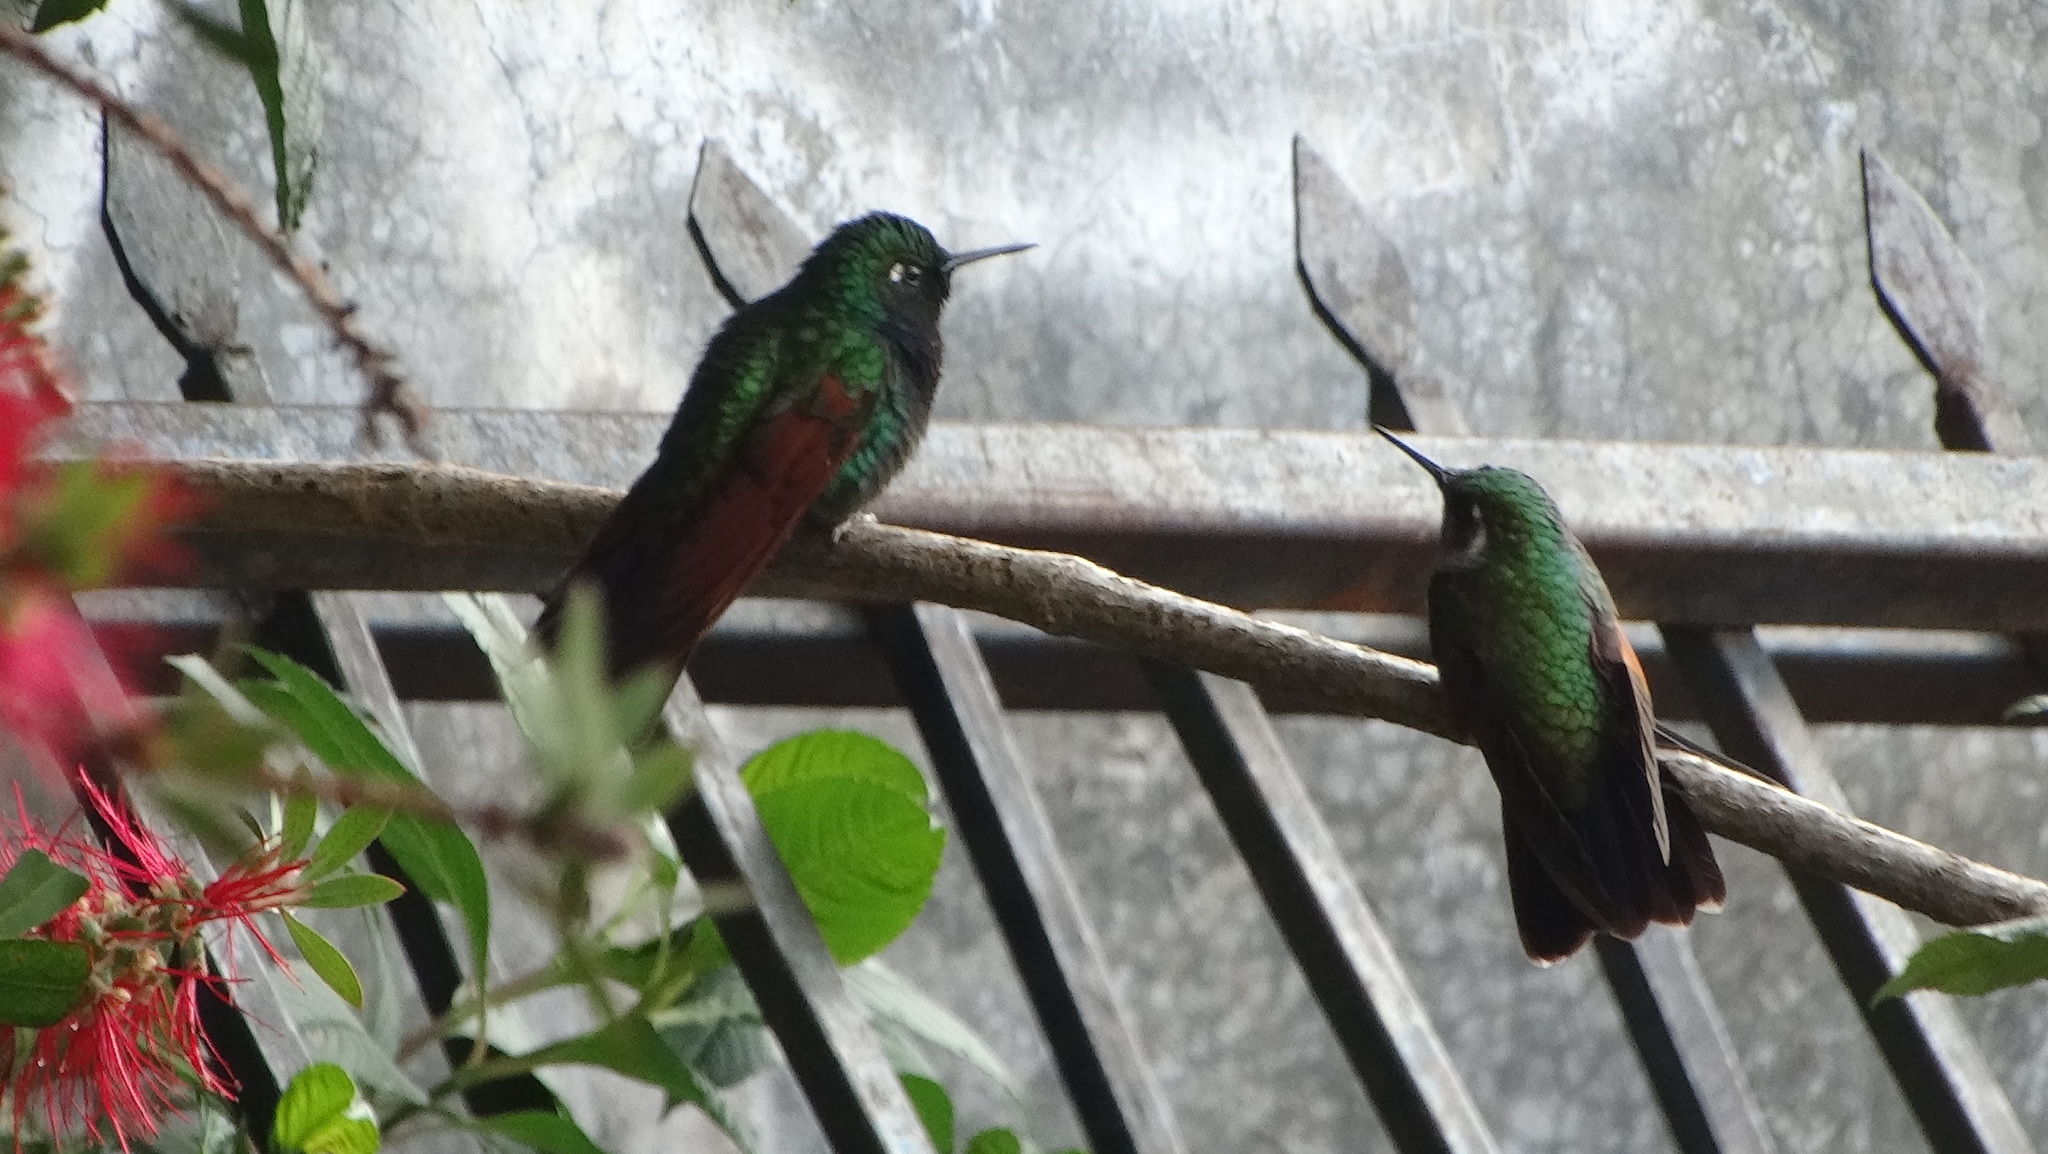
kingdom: Animalia
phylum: Chordata
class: Aves
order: Apodiformes
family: Trochilidae
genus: Lamprolaima
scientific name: Lamprolaima rhami
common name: Garnet-throated hummingbird
